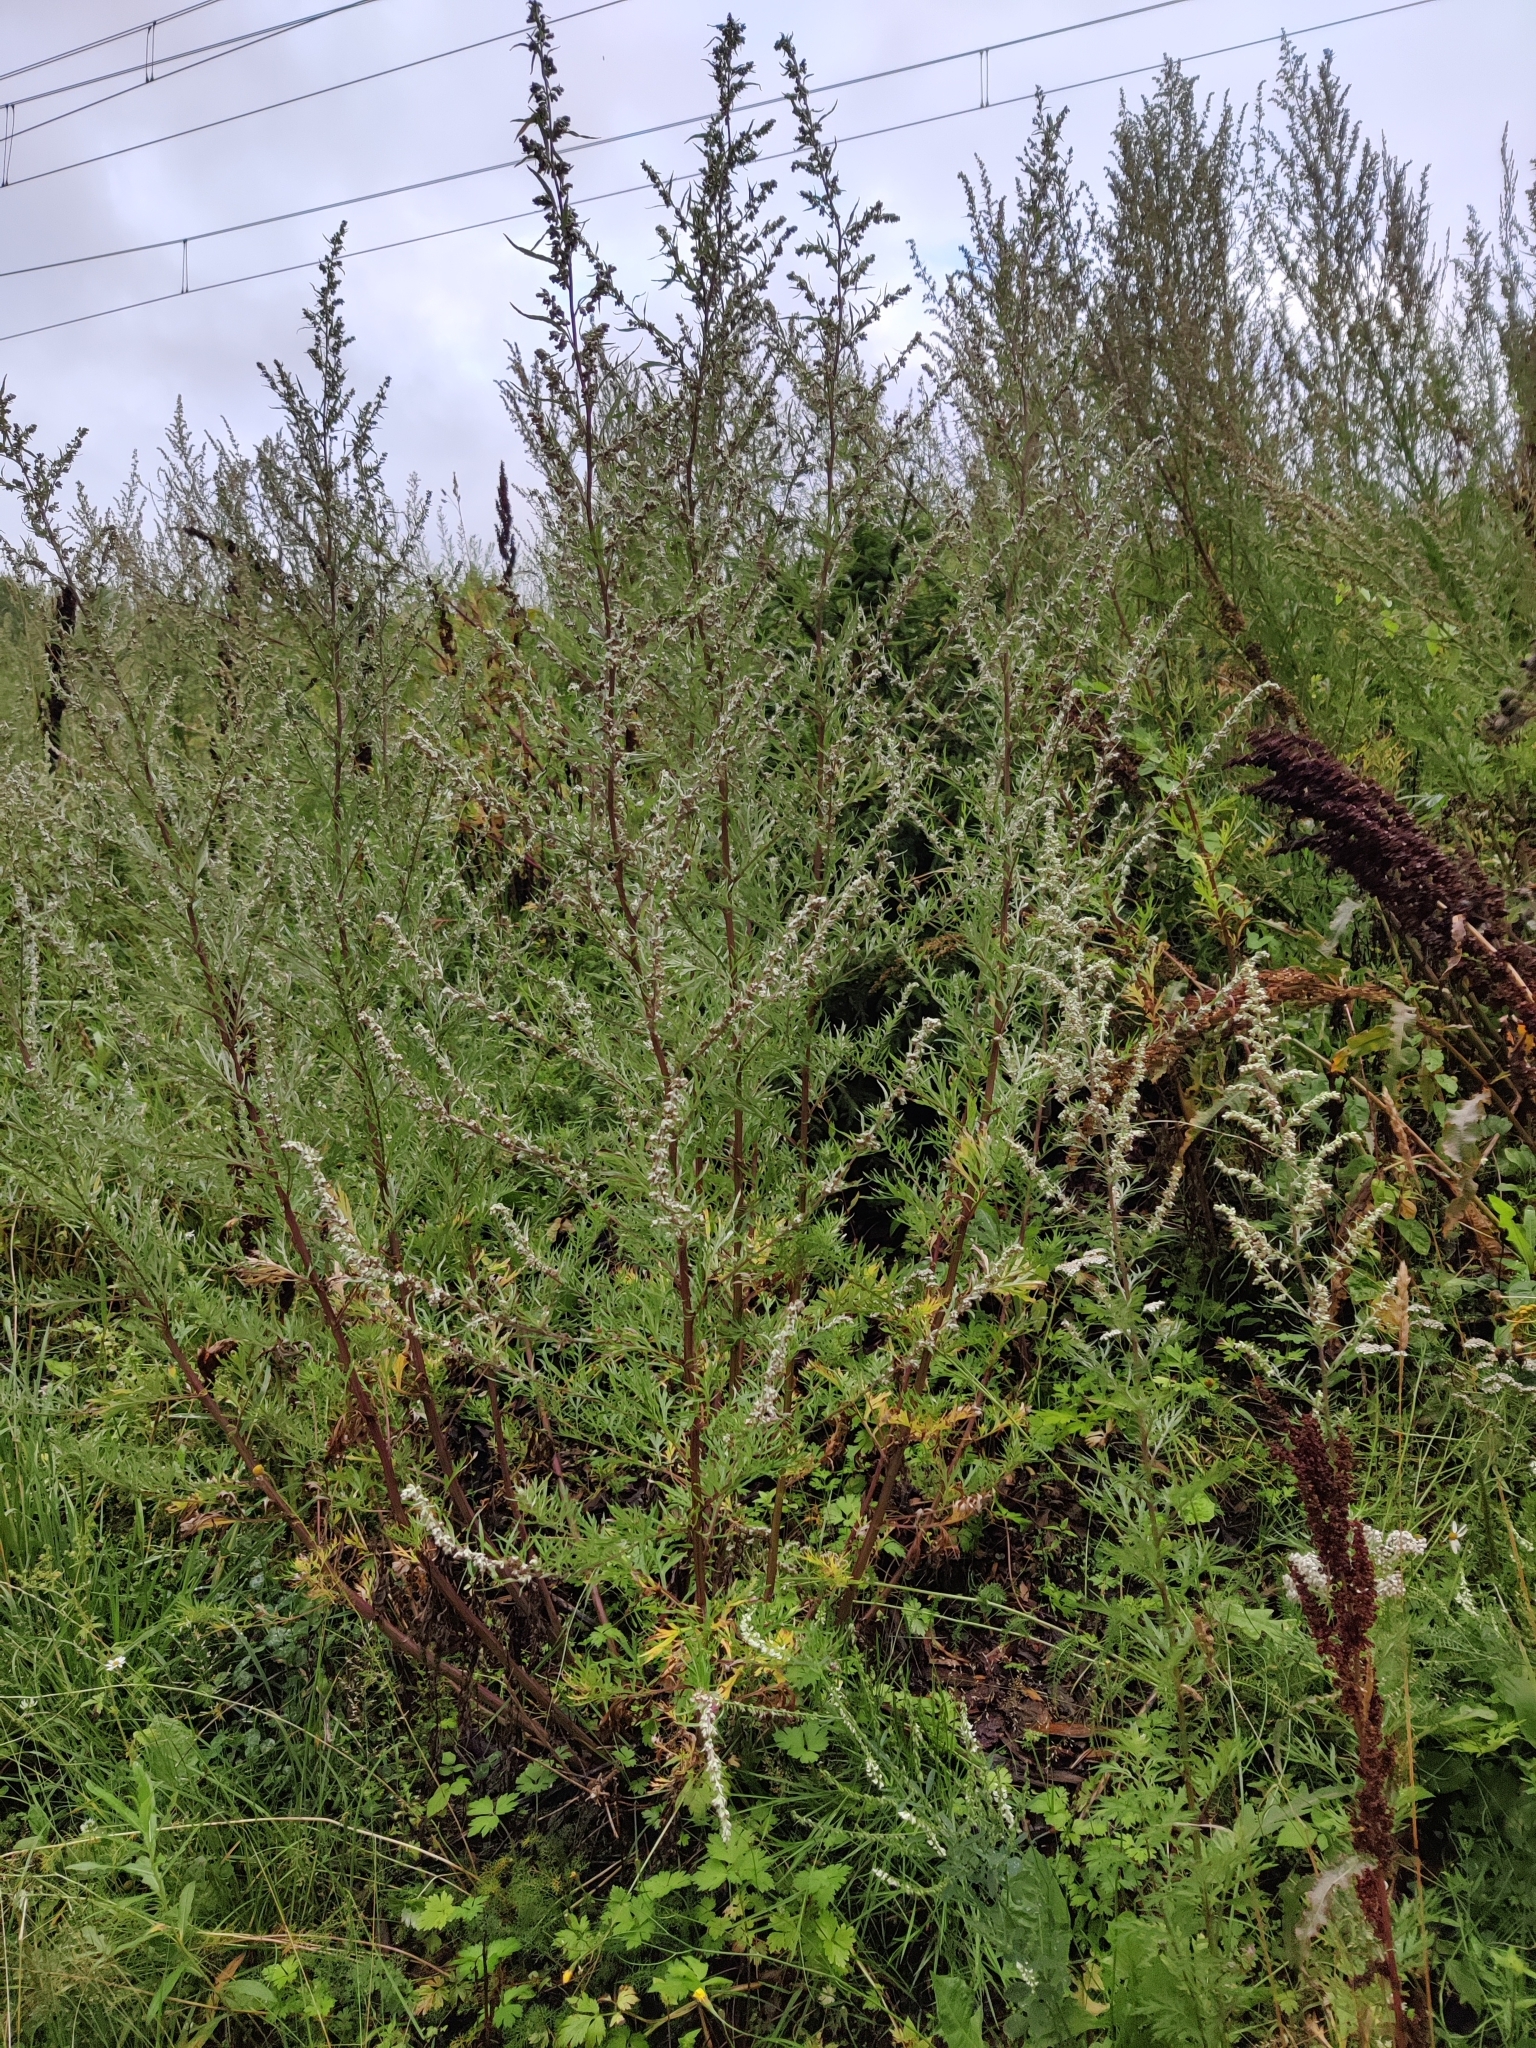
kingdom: Plantae
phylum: Tracheophyta
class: Magnoliopsida
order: Asterales
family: Asteraceae
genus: Artemisia
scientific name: Artemisia vulgaris
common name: Mugwort
